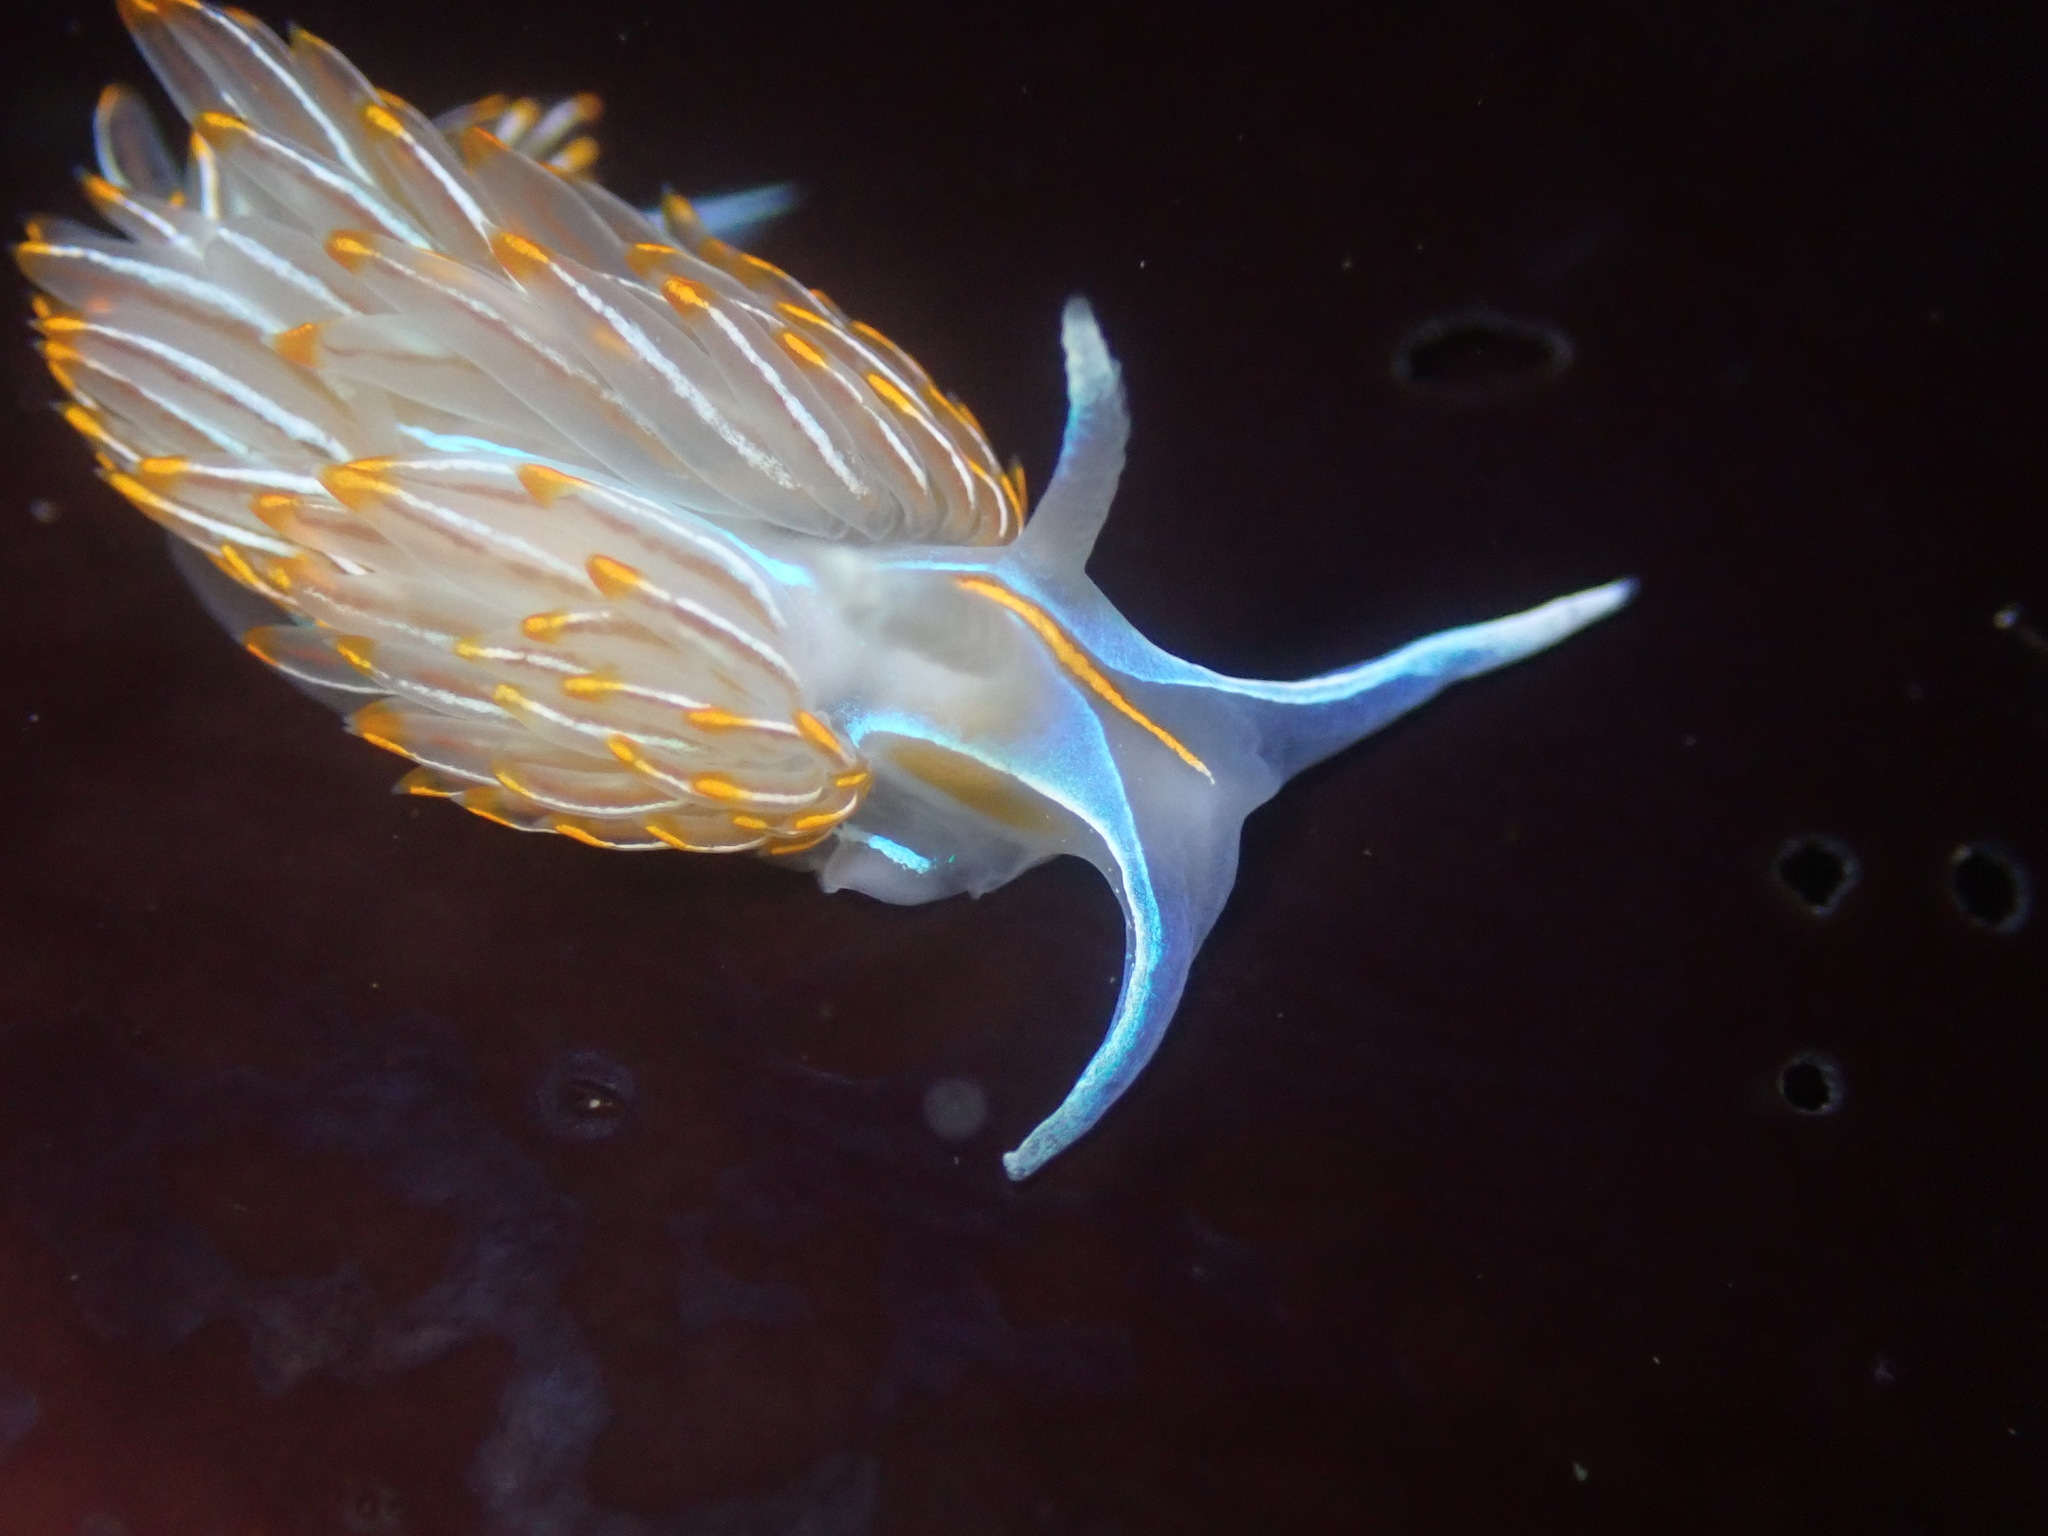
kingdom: Animalia
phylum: Mollusca
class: Gastropoda
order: Nudibranchia
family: Myrrhinidae
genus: Hermissenda
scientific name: Hermissenda crassicornis
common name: Hermissenda
